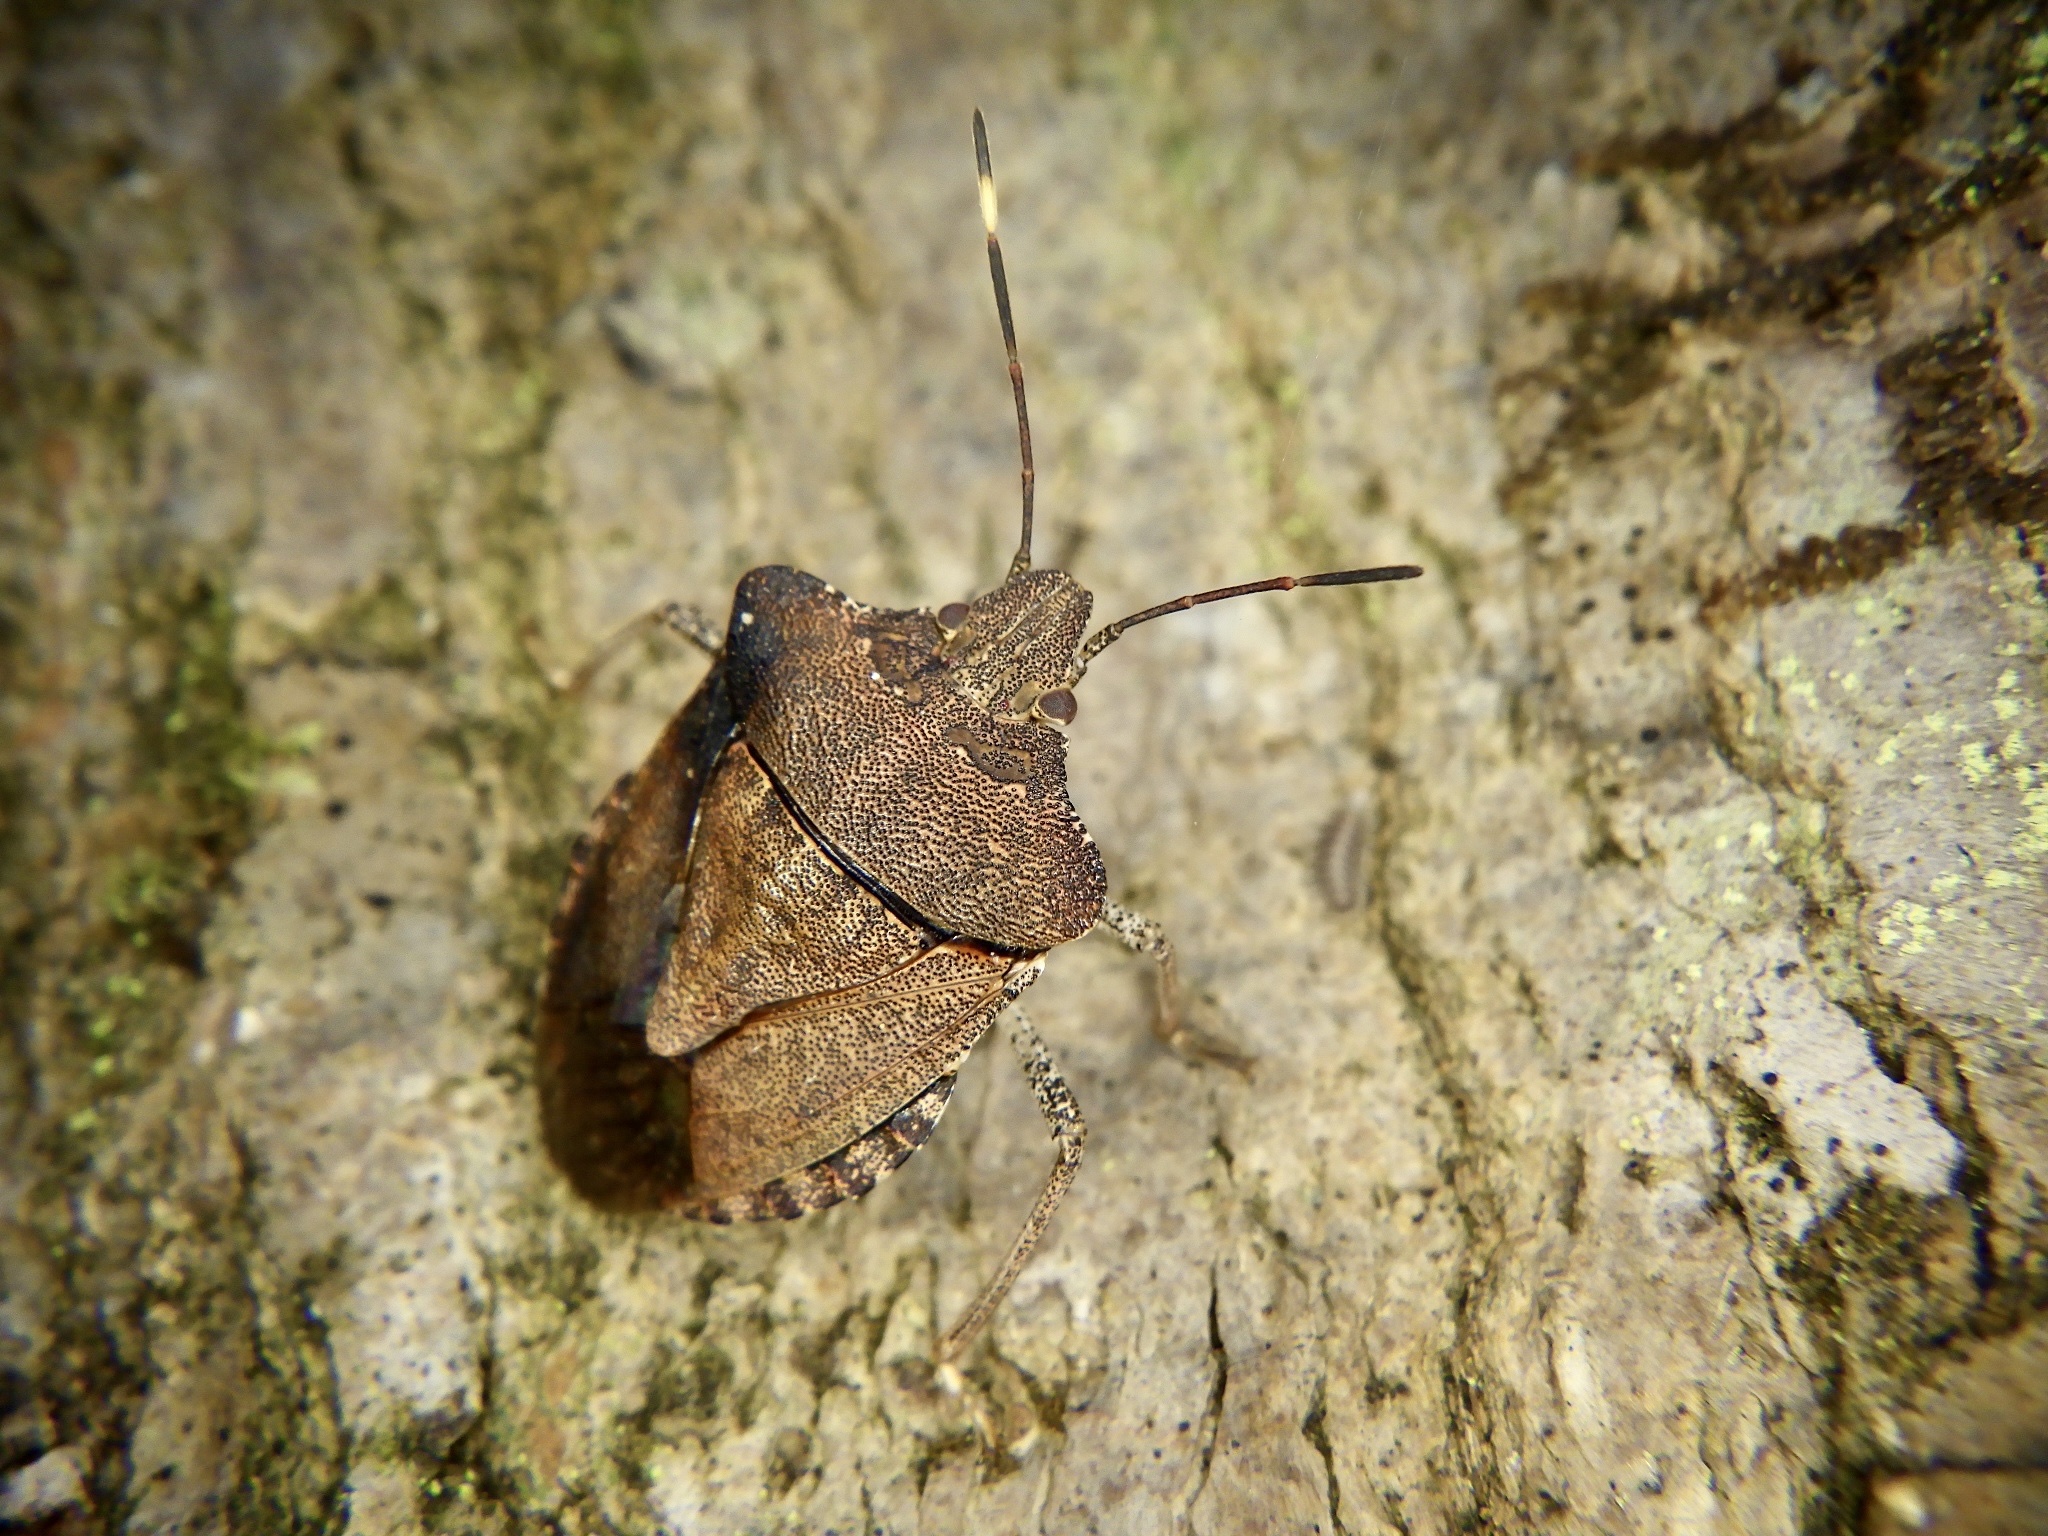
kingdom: Animalia
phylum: Arthropoda
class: Insecta
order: Hemiptera
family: Pentatomidae
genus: Homalogonia
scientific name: Homalogonia obtusa
